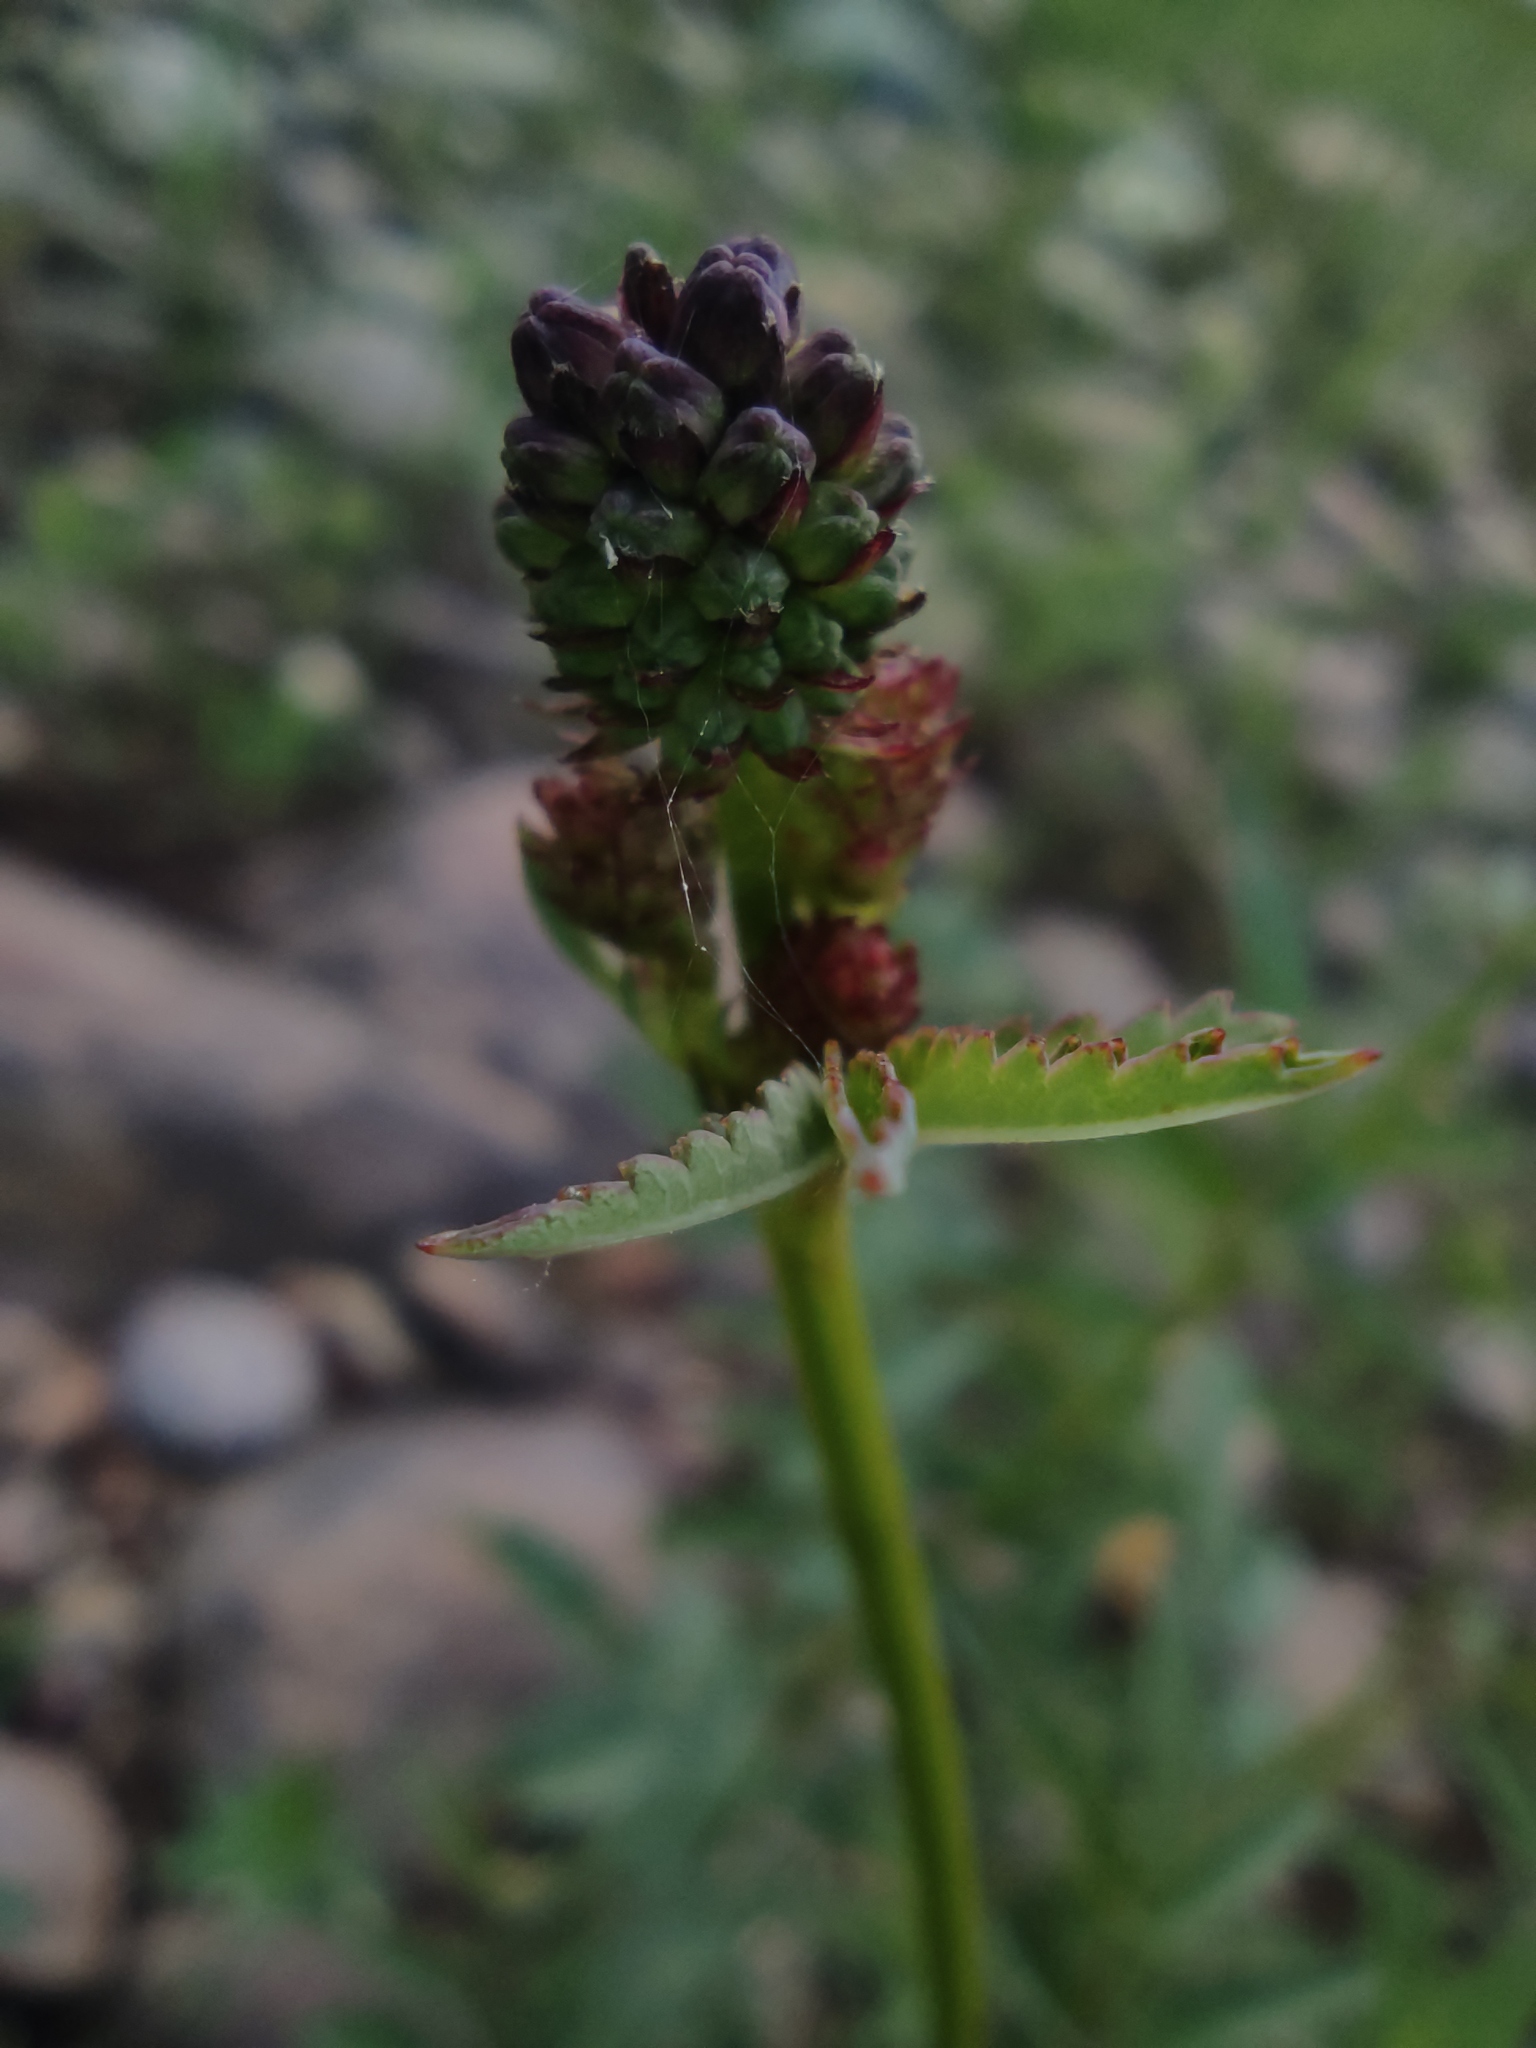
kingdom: Plantae
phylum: Tracheophyta
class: Magnoliopsida
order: Rosales
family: Rosaceae
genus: Sanguisorba
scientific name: Sanguisorba officinalis
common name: Great burnet
